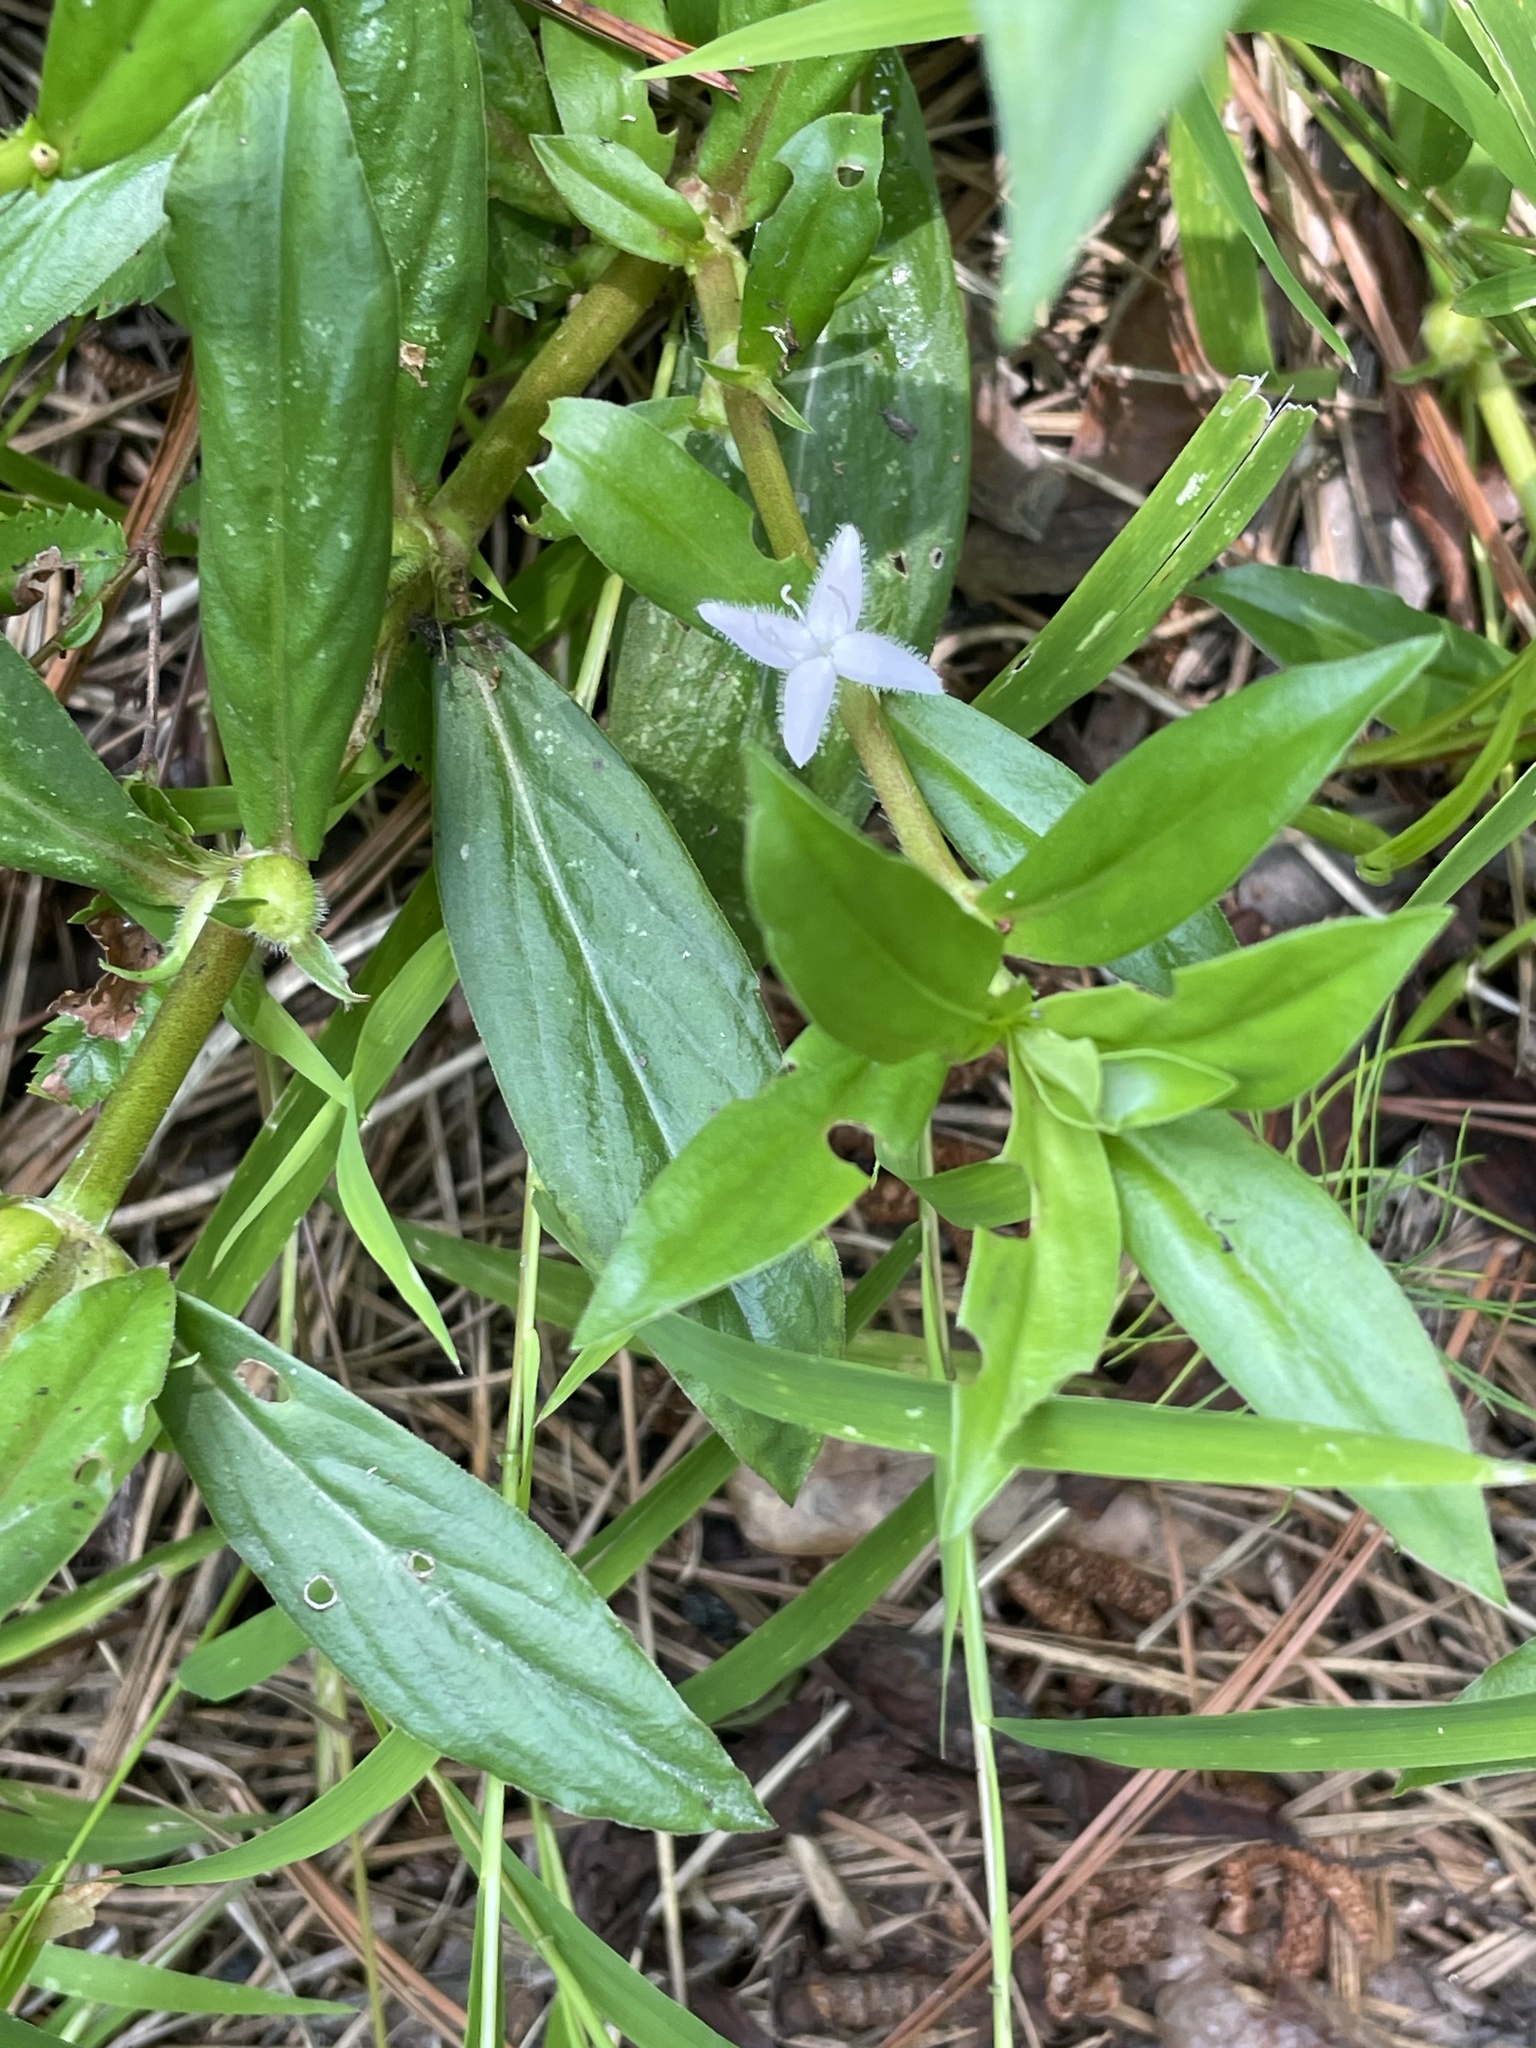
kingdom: Plantae
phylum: Tracheophyta
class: Magnoliopsida
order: Gentianales
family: Rubiaceae
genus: Diodia
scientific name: Diodia virginiana
